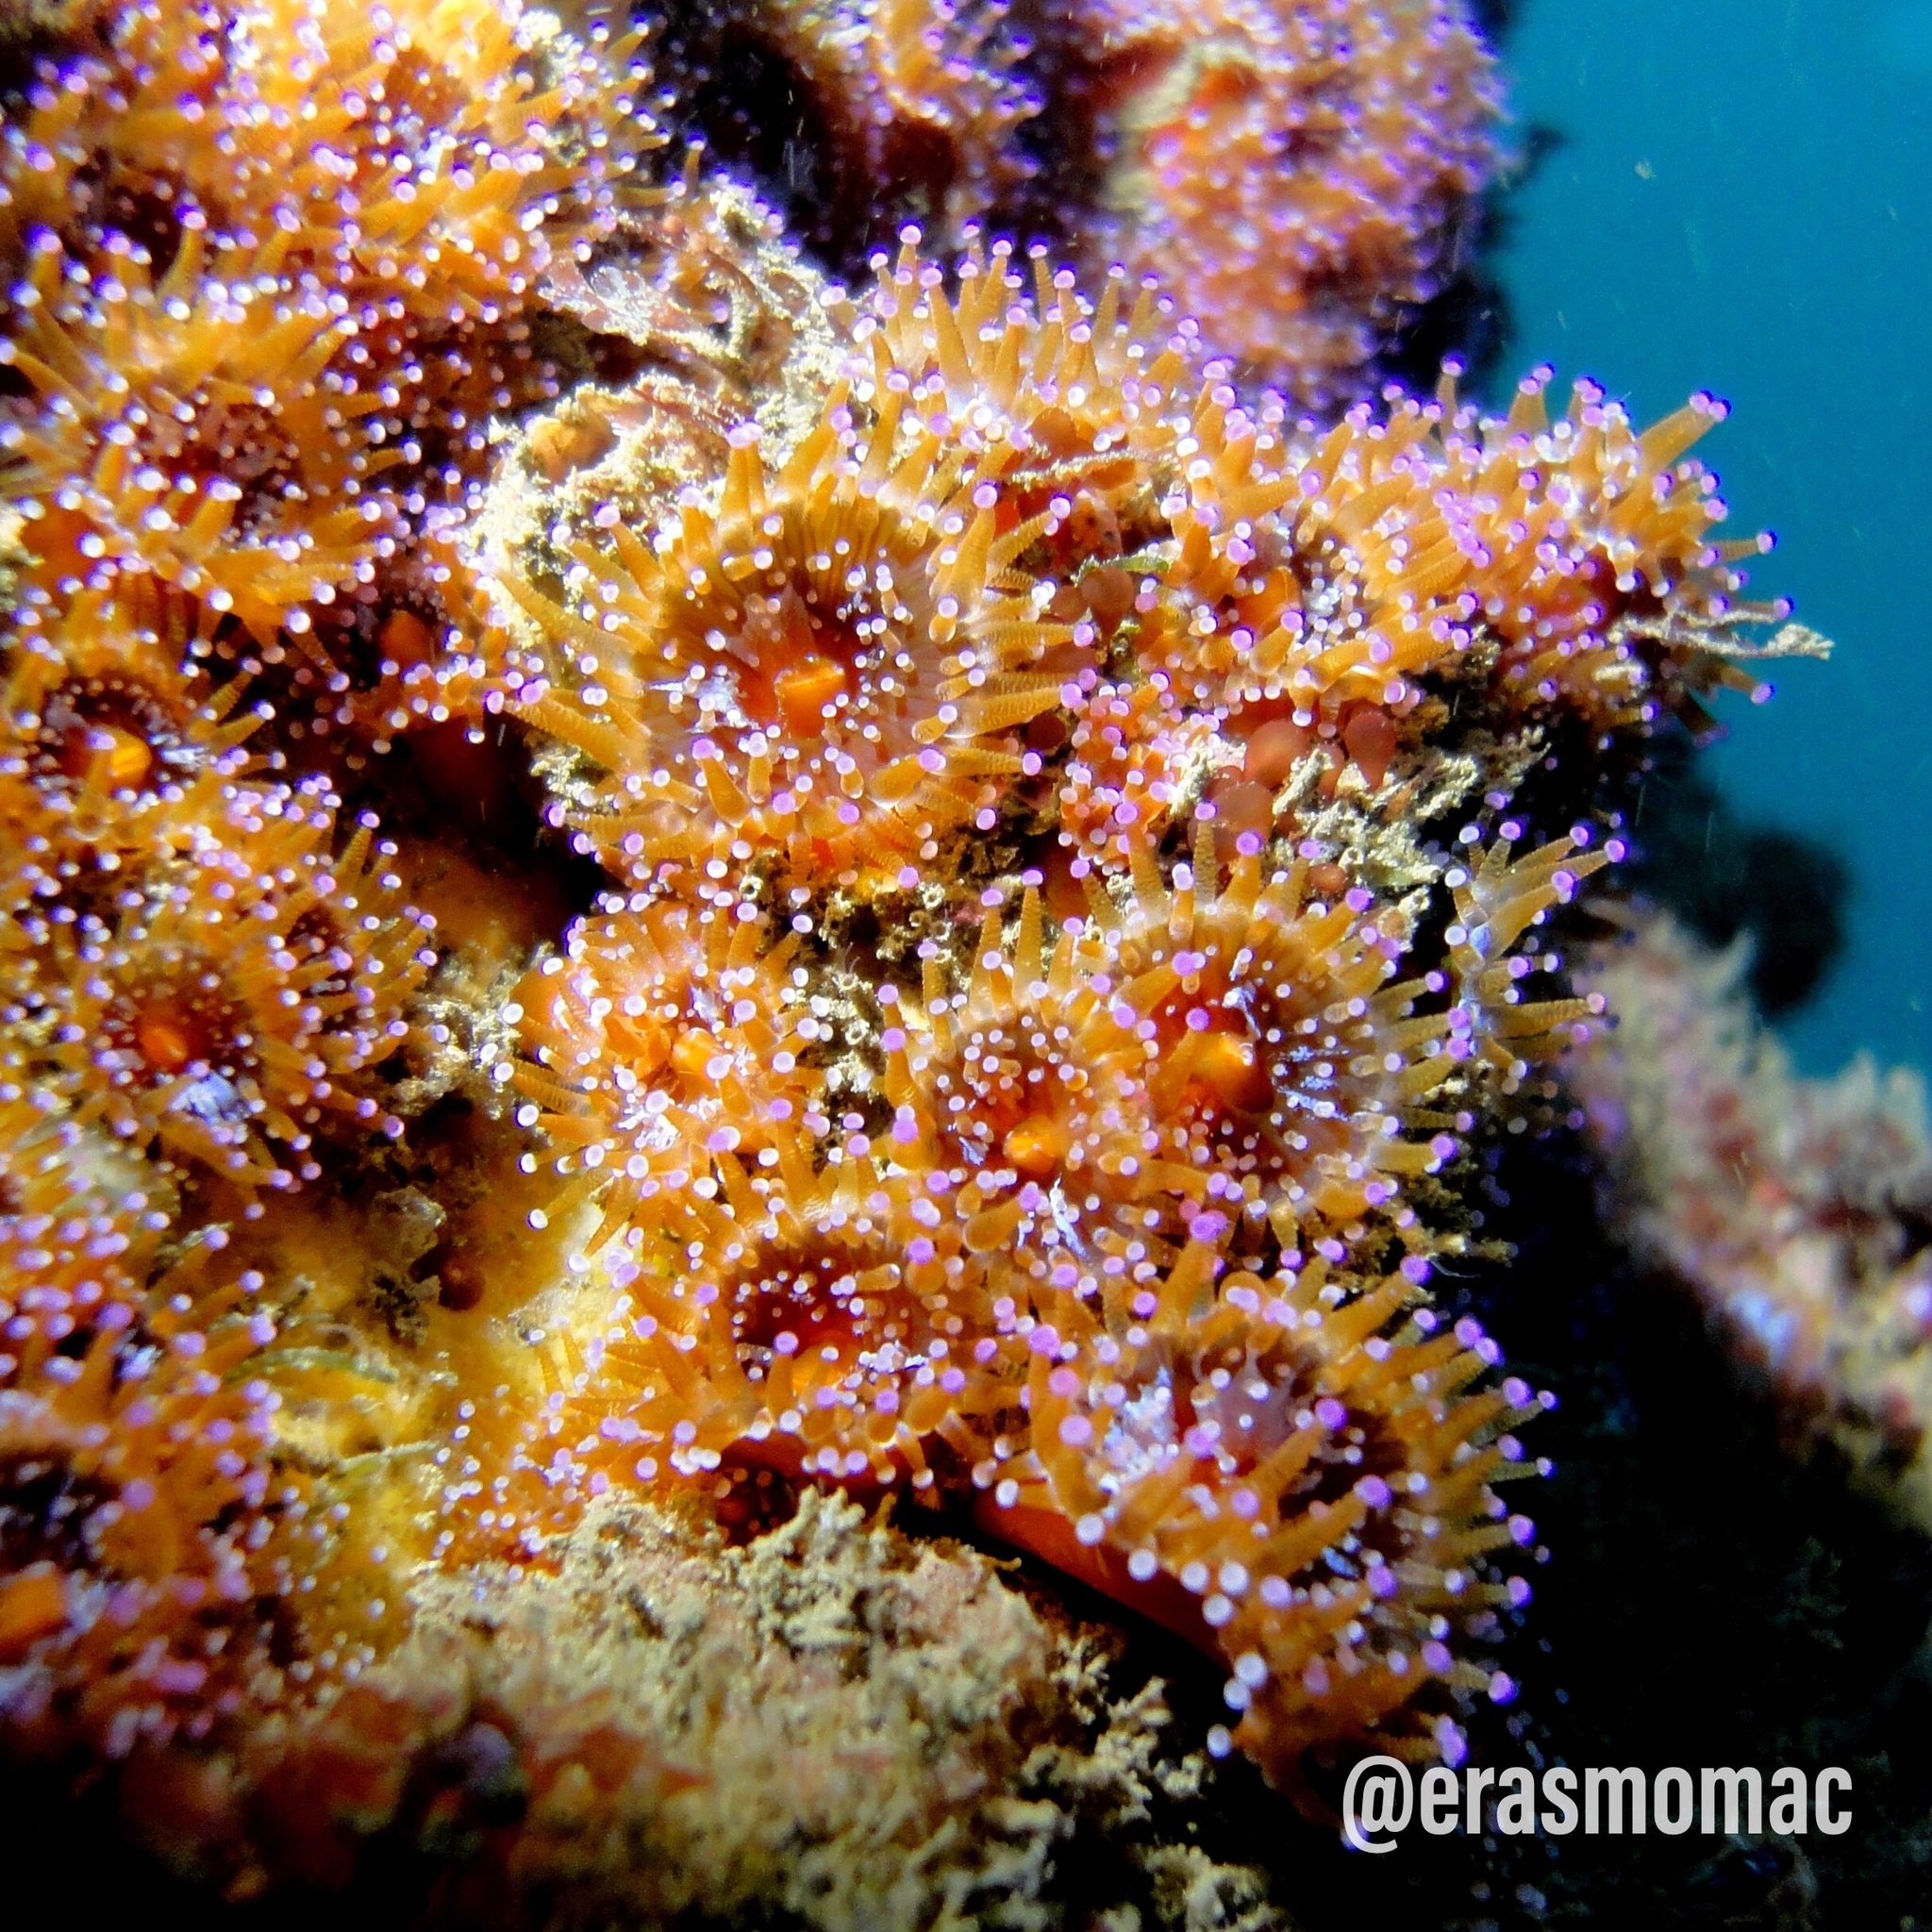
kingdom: Animalia
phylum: Cnidaria
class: Anthozoa
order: Corallimorpharia
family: Corallimorphidae
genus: Corynactis
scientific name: Corynactis chilensis
